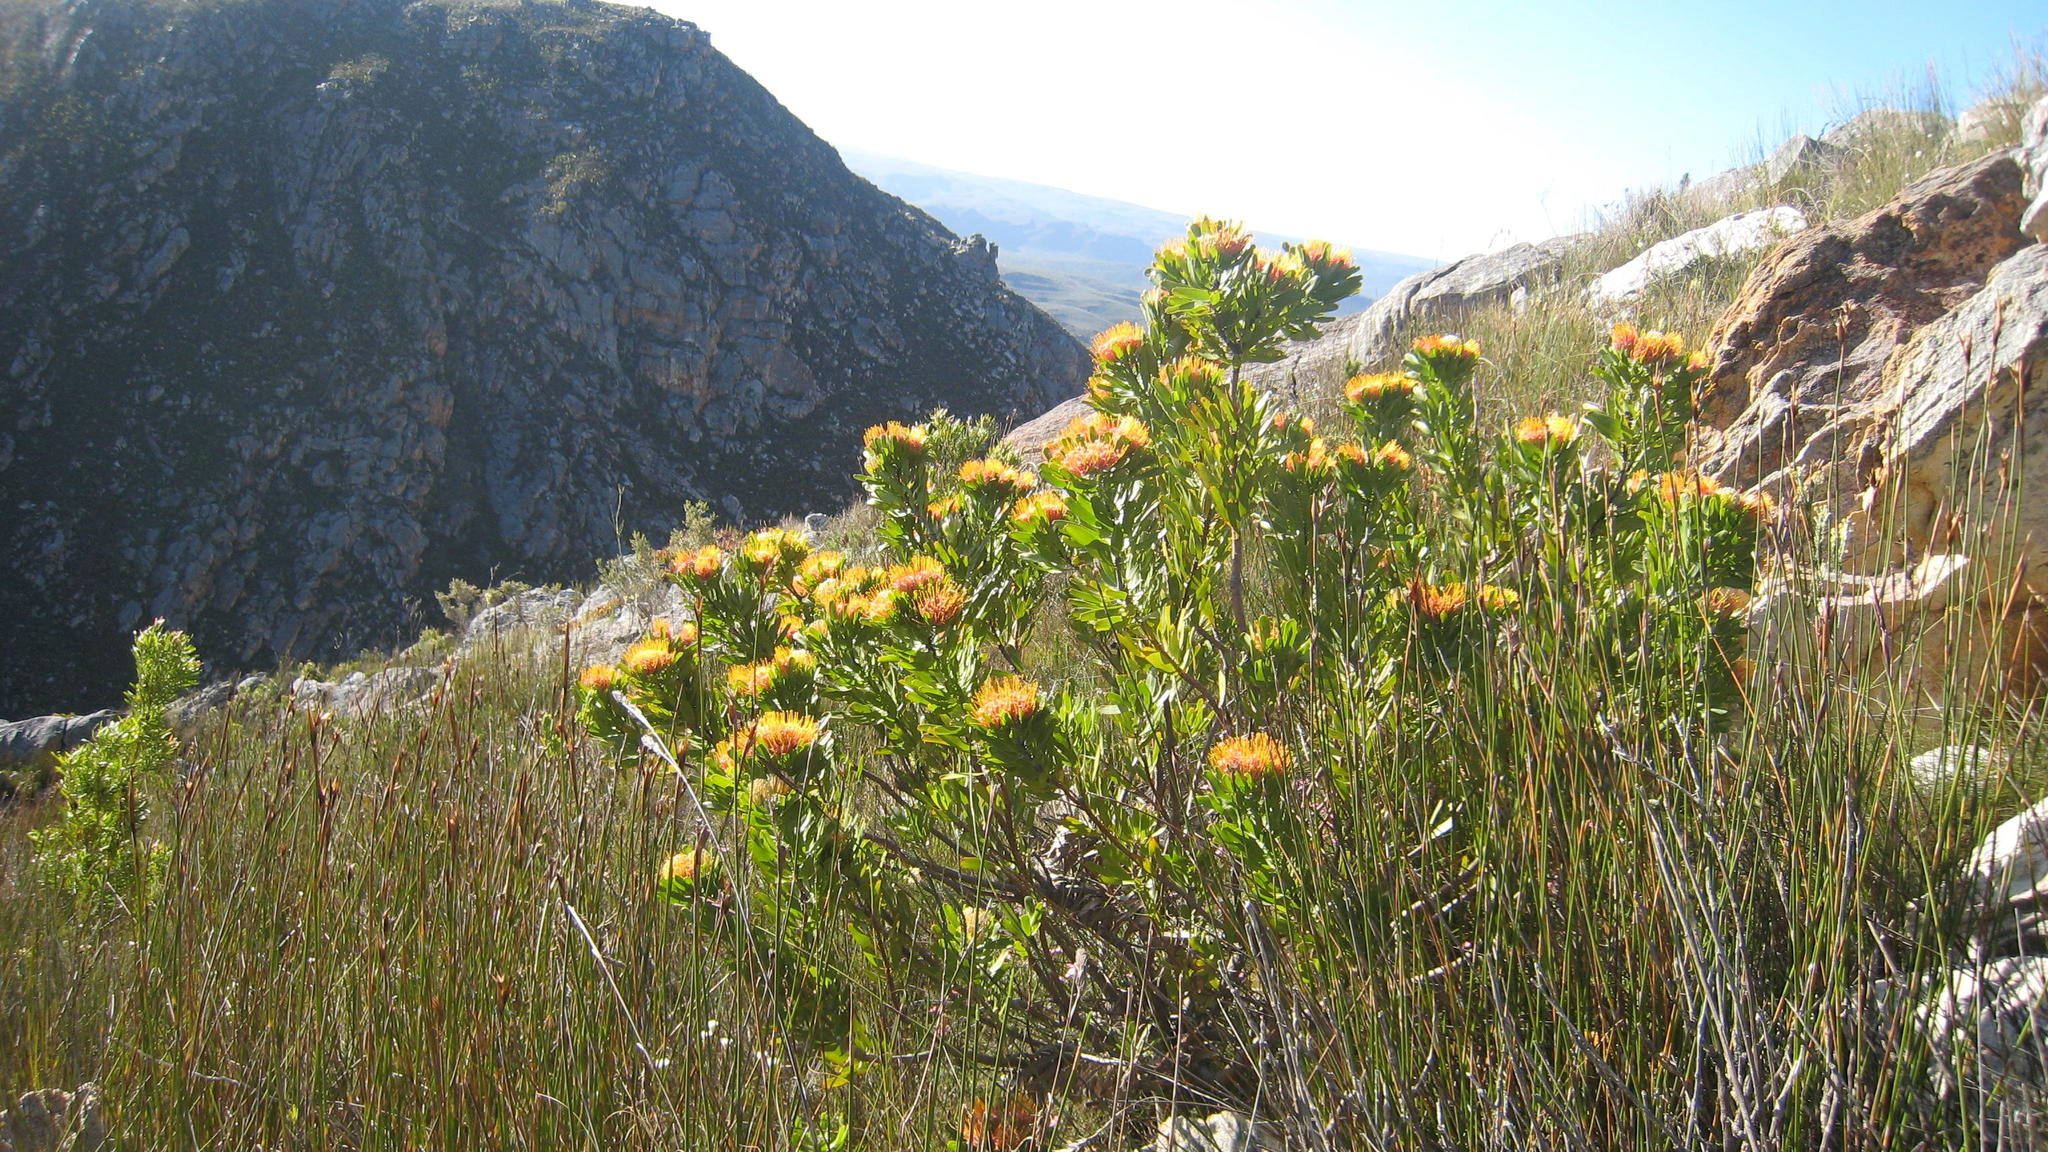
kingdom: Plantae
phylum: Tracheophyta
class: Magnoliopsida
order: Proteales
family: Proteaceae
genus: Leucospermum
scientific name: Leucospermum erubescens
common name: Oudtshoorn pincushion
